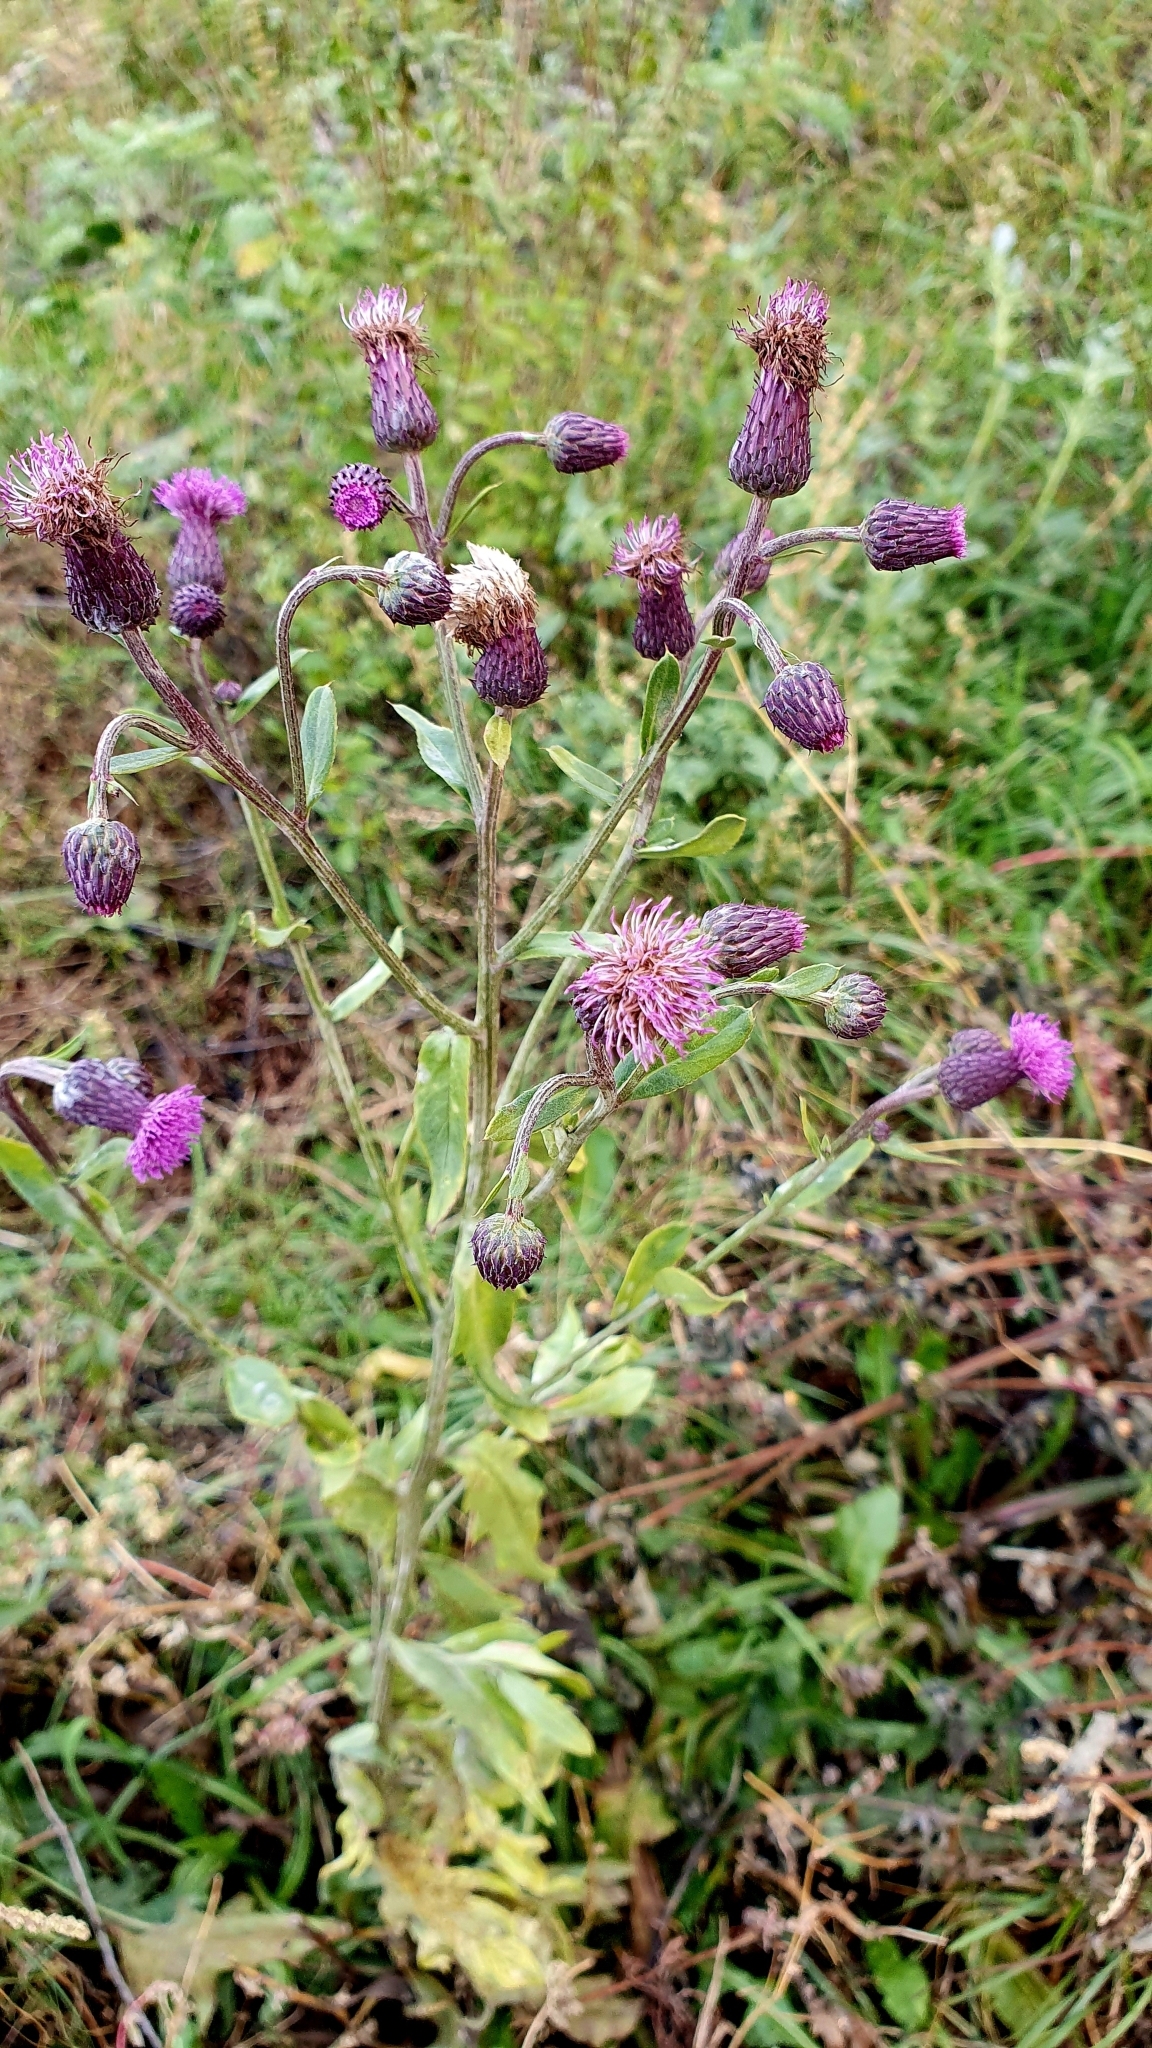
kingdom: Plantae
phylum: Tracheophyta
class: Magnoliopsida
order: Asterales
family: Asteraceae
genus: Cirsium
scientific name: Cirsium arvense
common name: Creeping thistle
